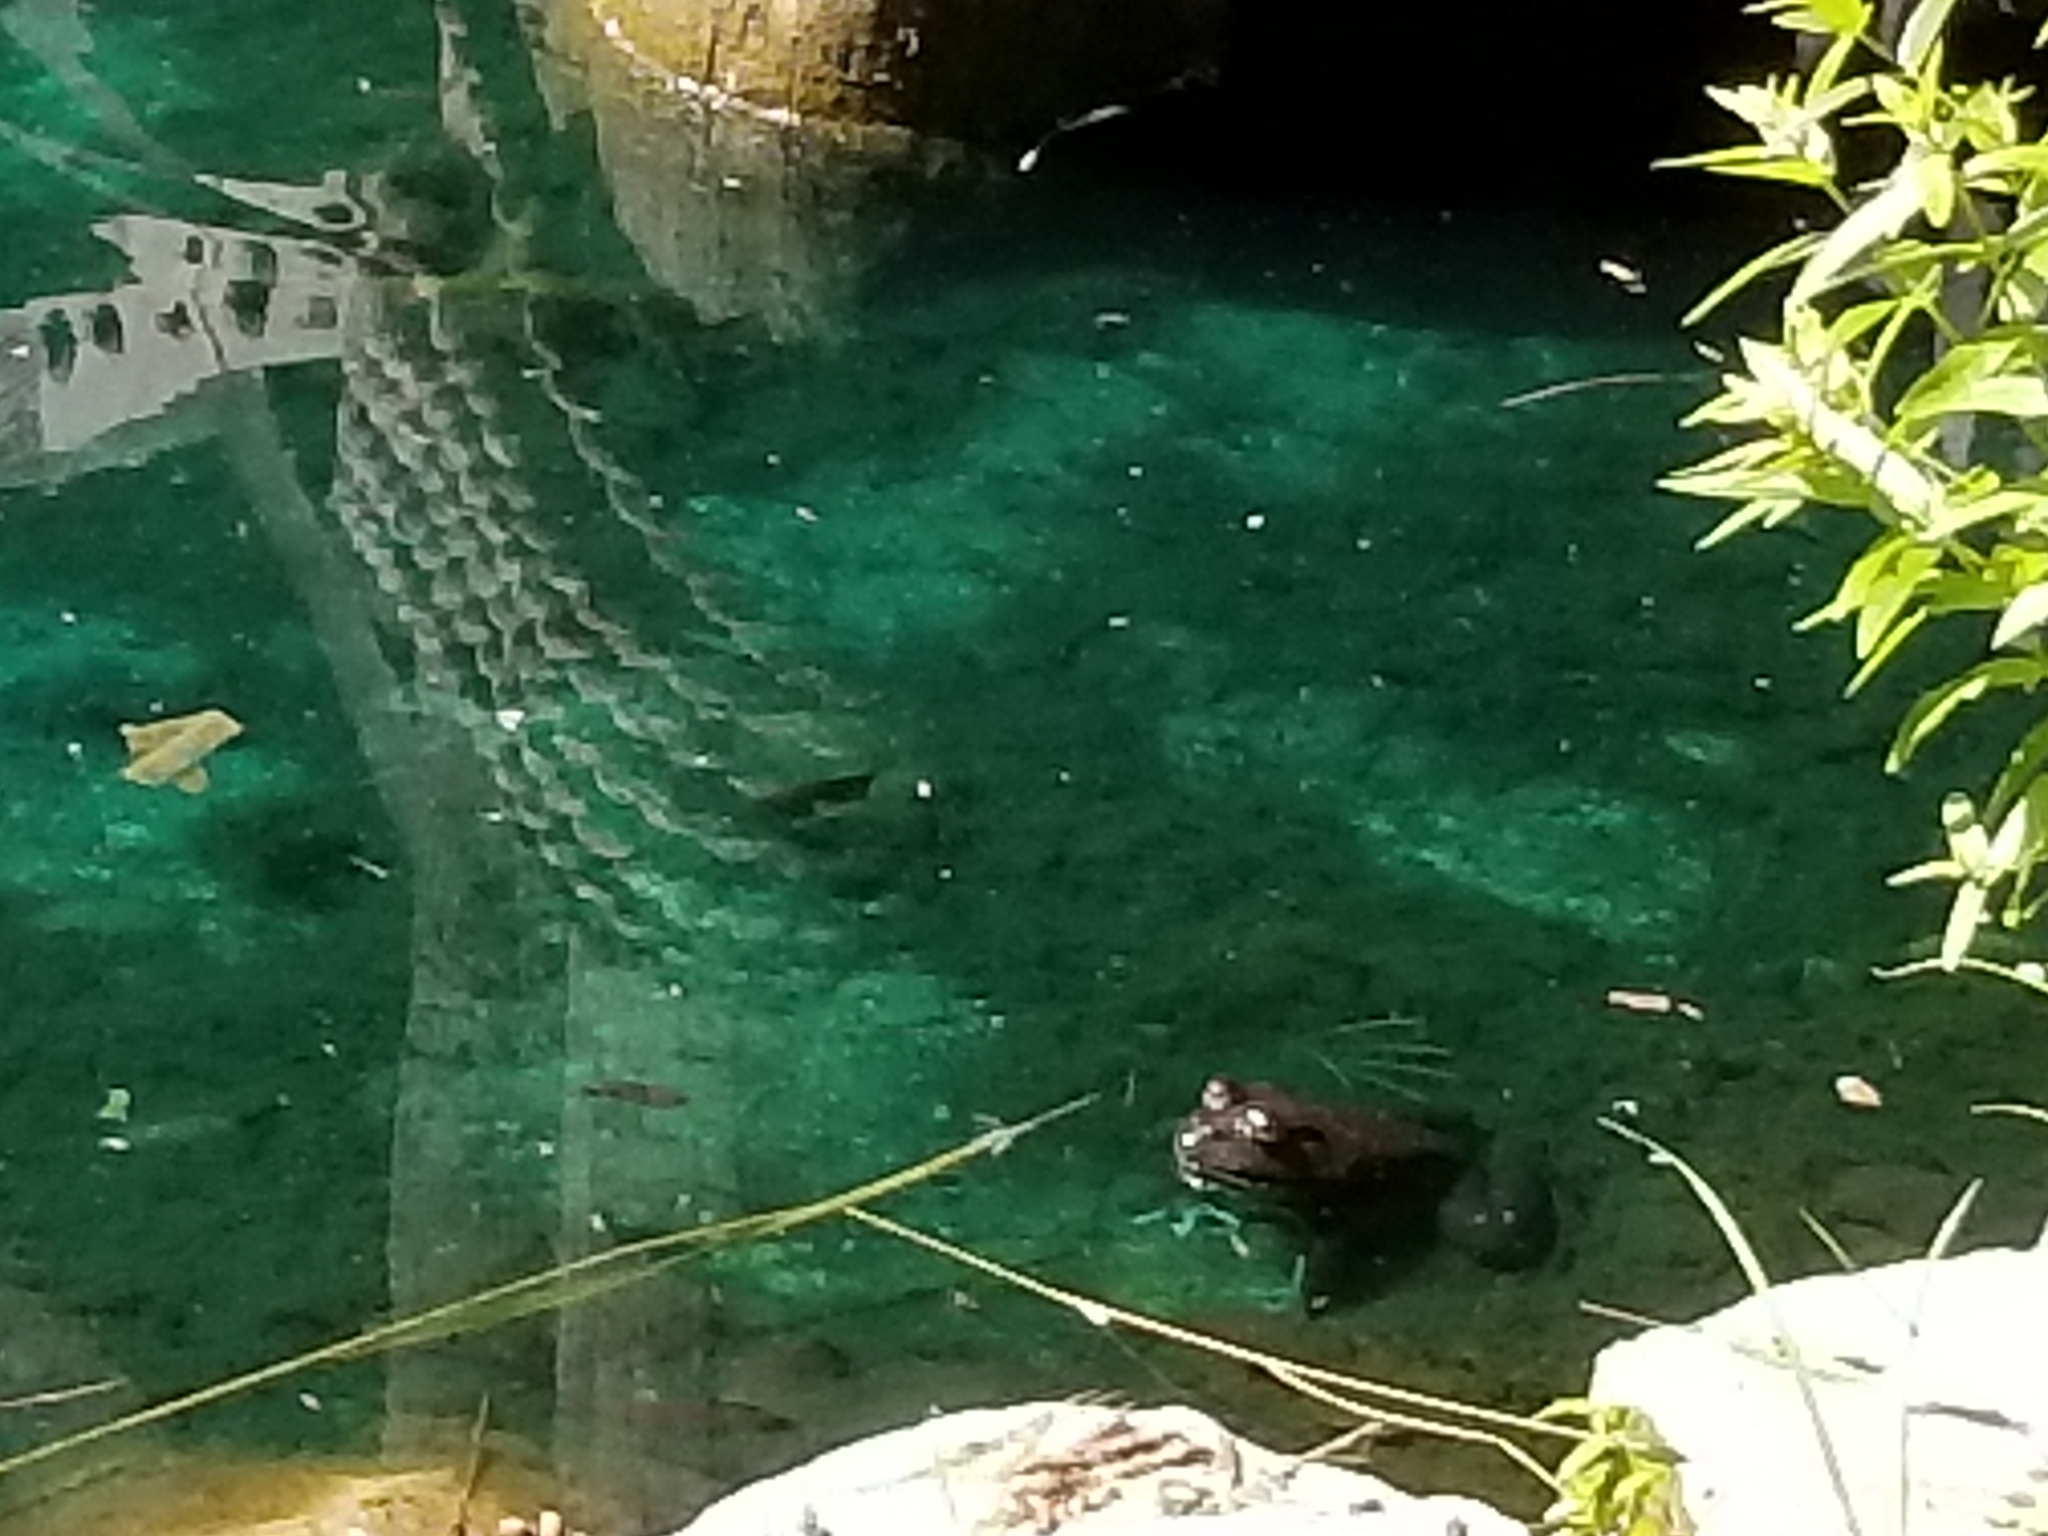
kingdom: Animalia
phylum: Chordata
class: Amphibia
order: Anura
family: Ranidae
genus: Lithobates
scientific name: Lithobates catesbeianus
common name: American bullfrog
